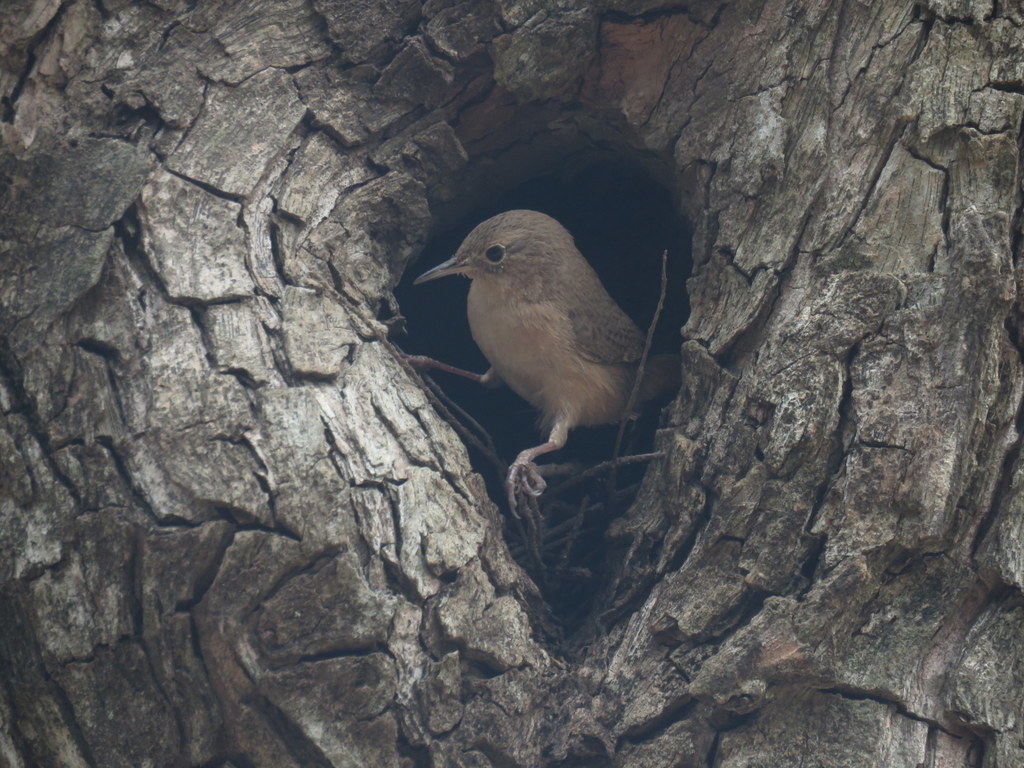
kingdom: Animalia
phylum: Chordata
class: Aves
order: Passeriformes
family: Troglodytidae
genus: Troglodytes
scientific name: Troglodytes aedon
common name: House wren
